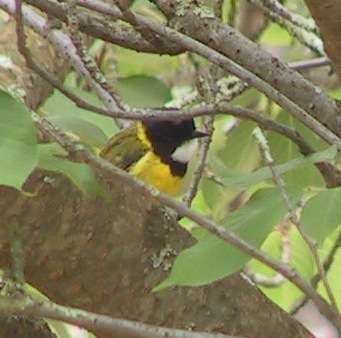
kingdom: Animalia
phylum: Chordata
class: Aves
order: Passeriformes
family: Pachycephalidae
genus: Pachycephala
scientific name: Pachycephala pectoralis
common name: Australian golden whistler
